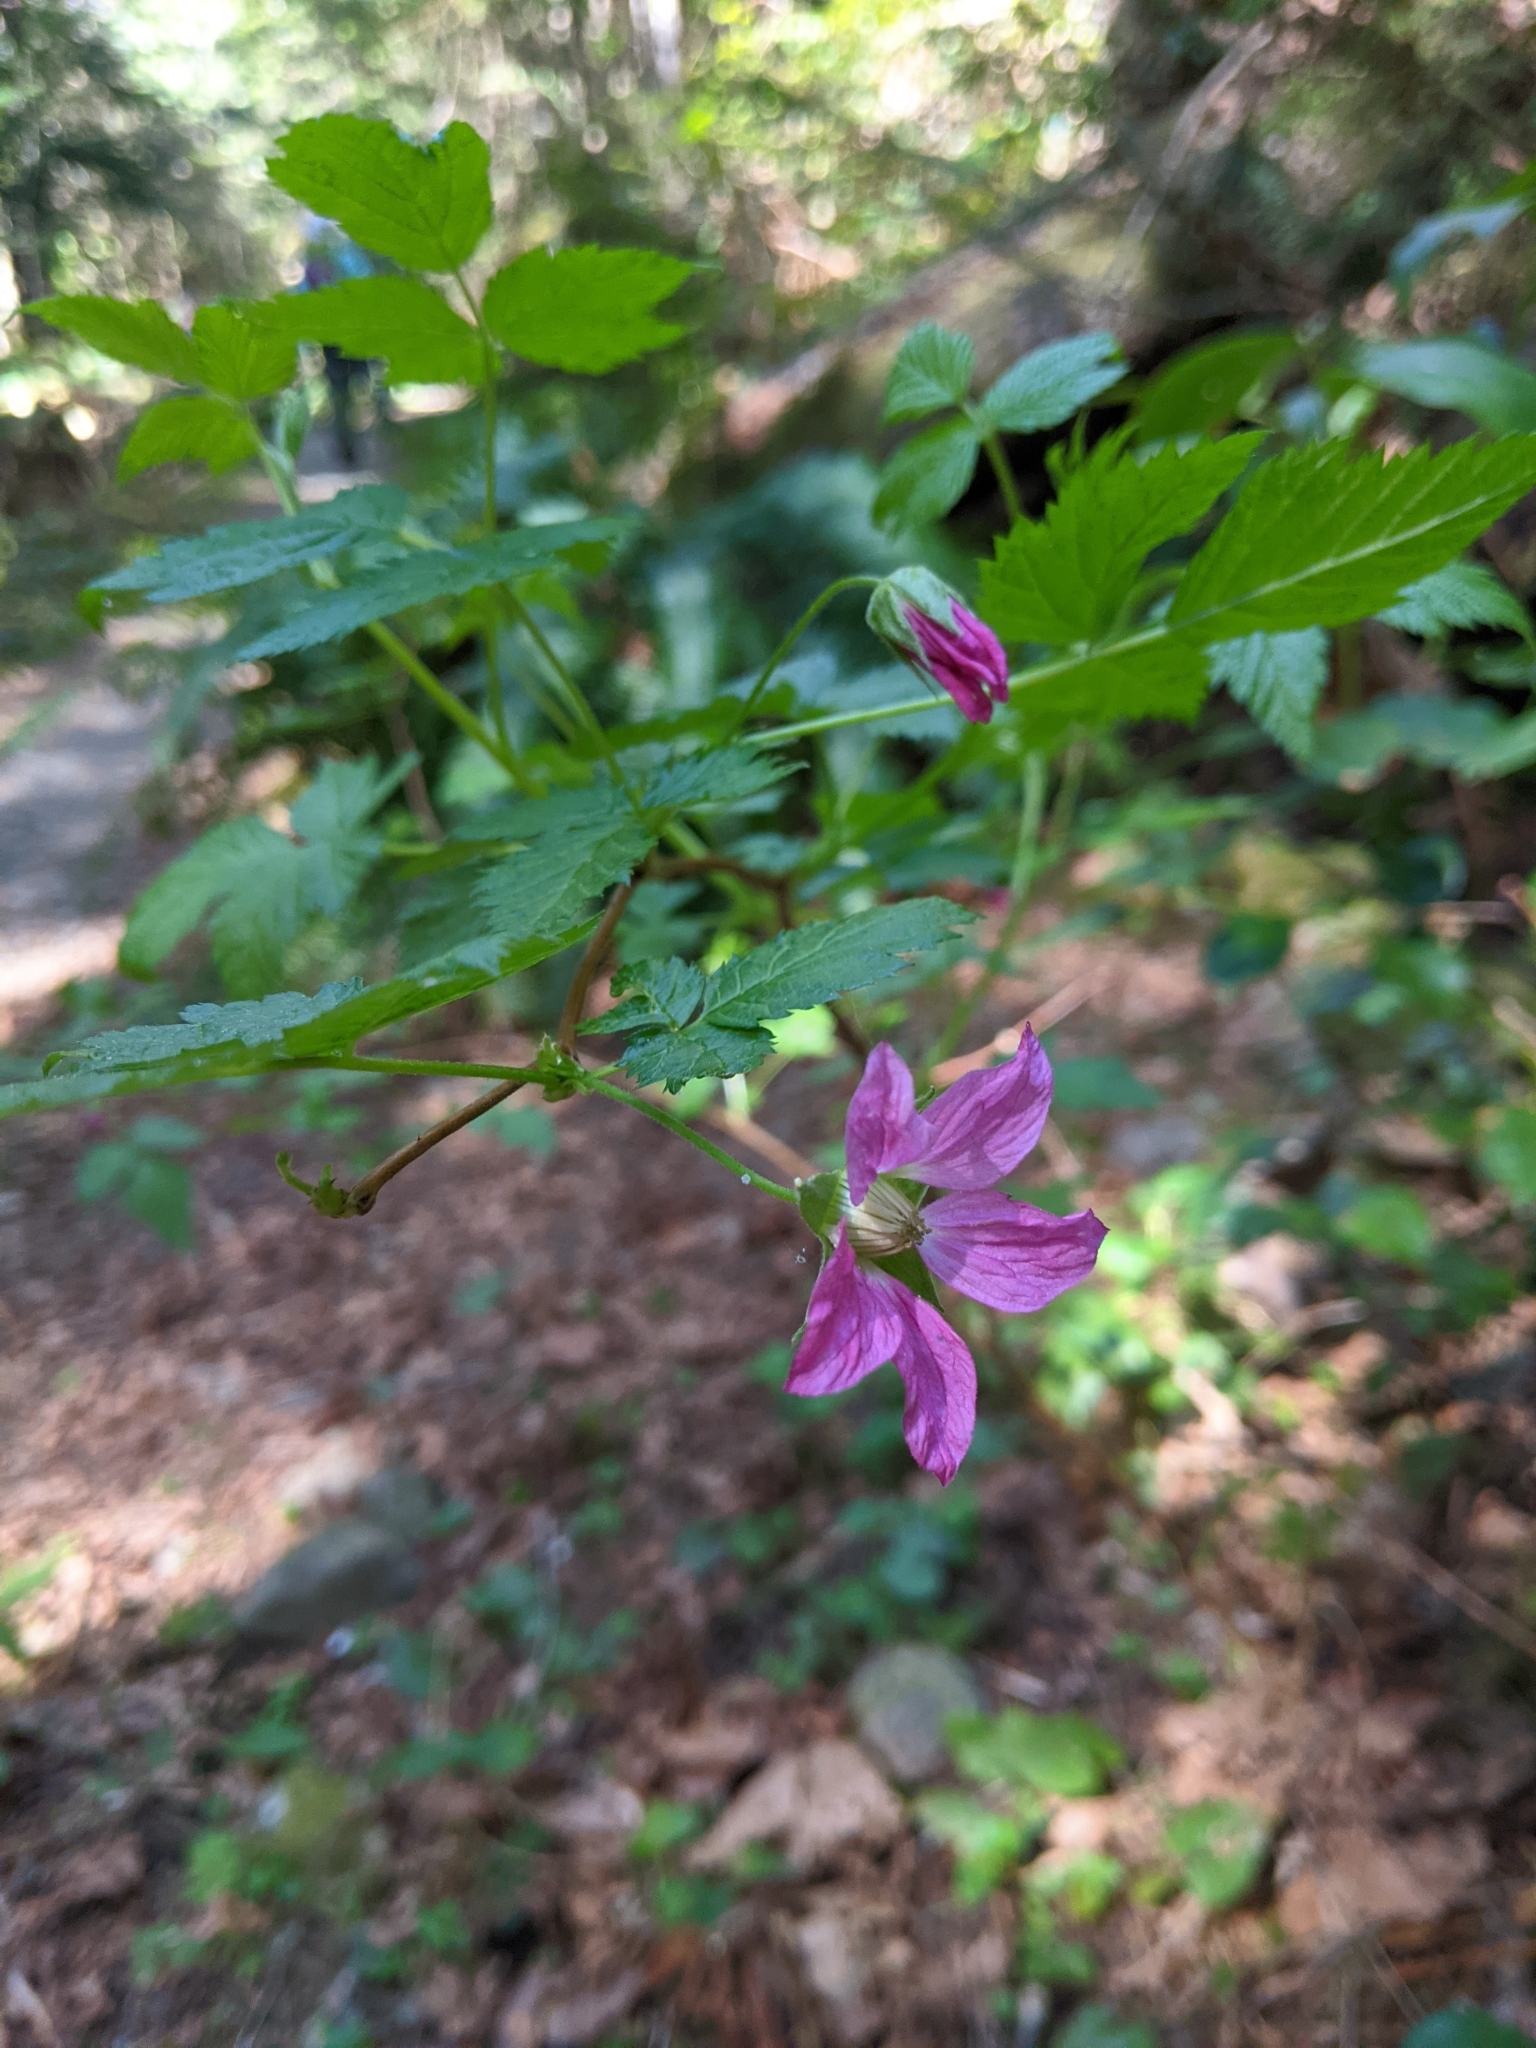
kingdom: Plantae
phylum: Tracheophyta
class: Magnoliopsida
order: Rosales
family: Rosaceae
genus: Rubus
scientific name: Rubus spectabilis
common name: Salmonberry
